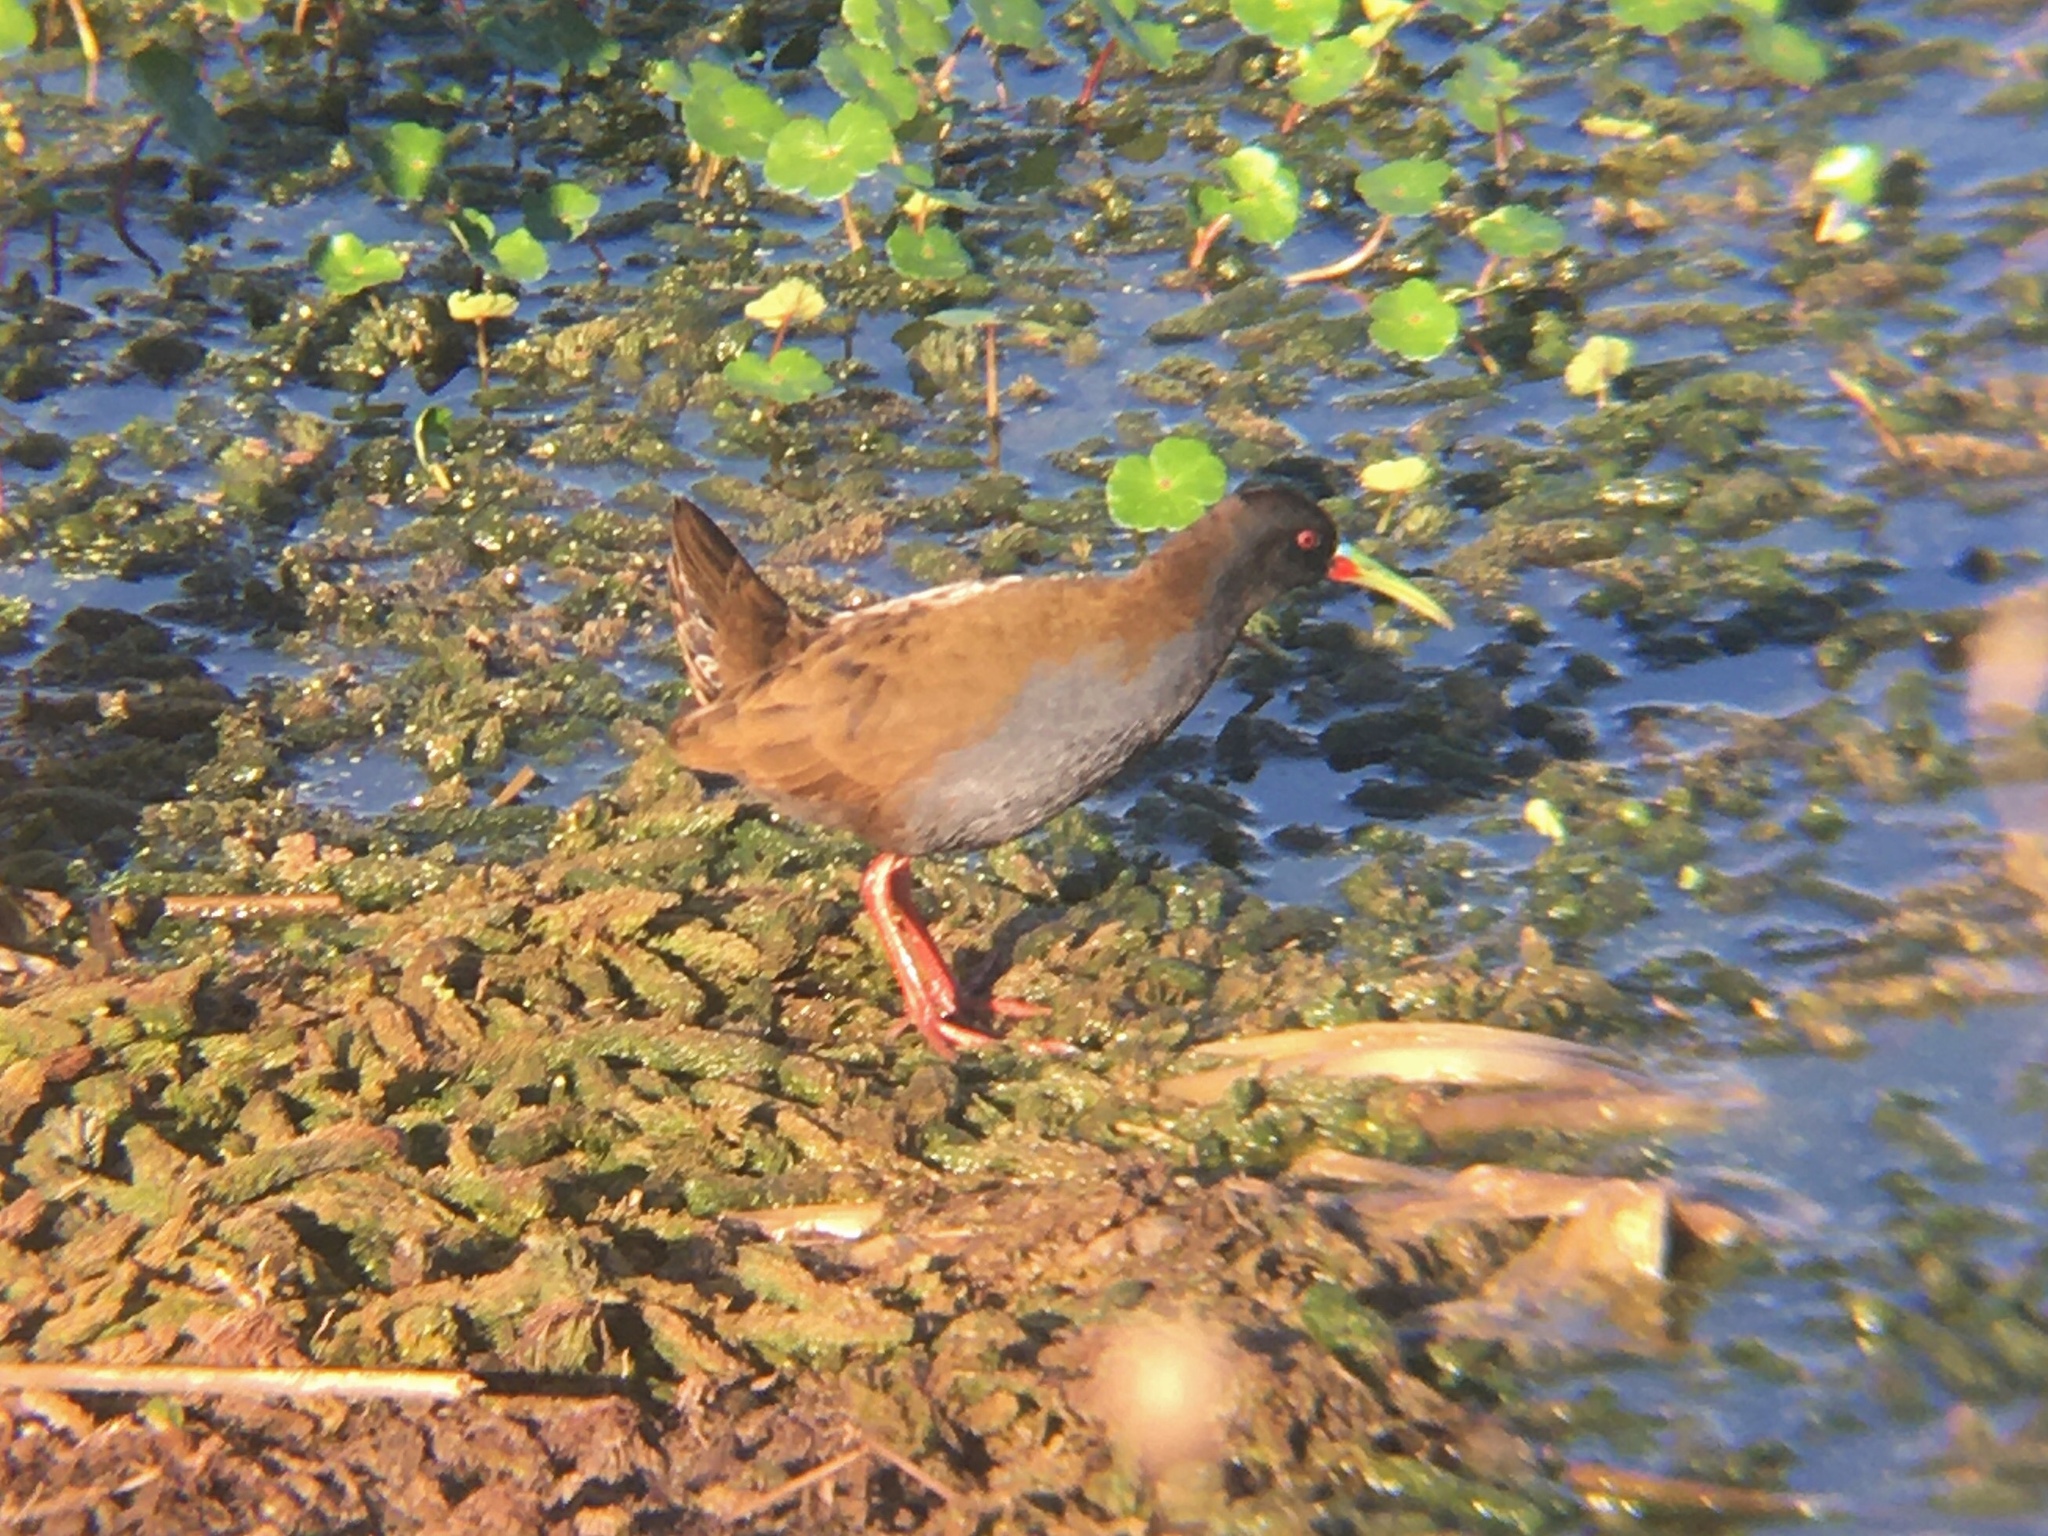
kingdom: Animalia
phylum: Chordata
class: Aves
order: Gruiformes
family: Rallidae
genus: Pardirallus
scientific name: Pardirallus sanguinolentus
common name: Plumbeous rail
